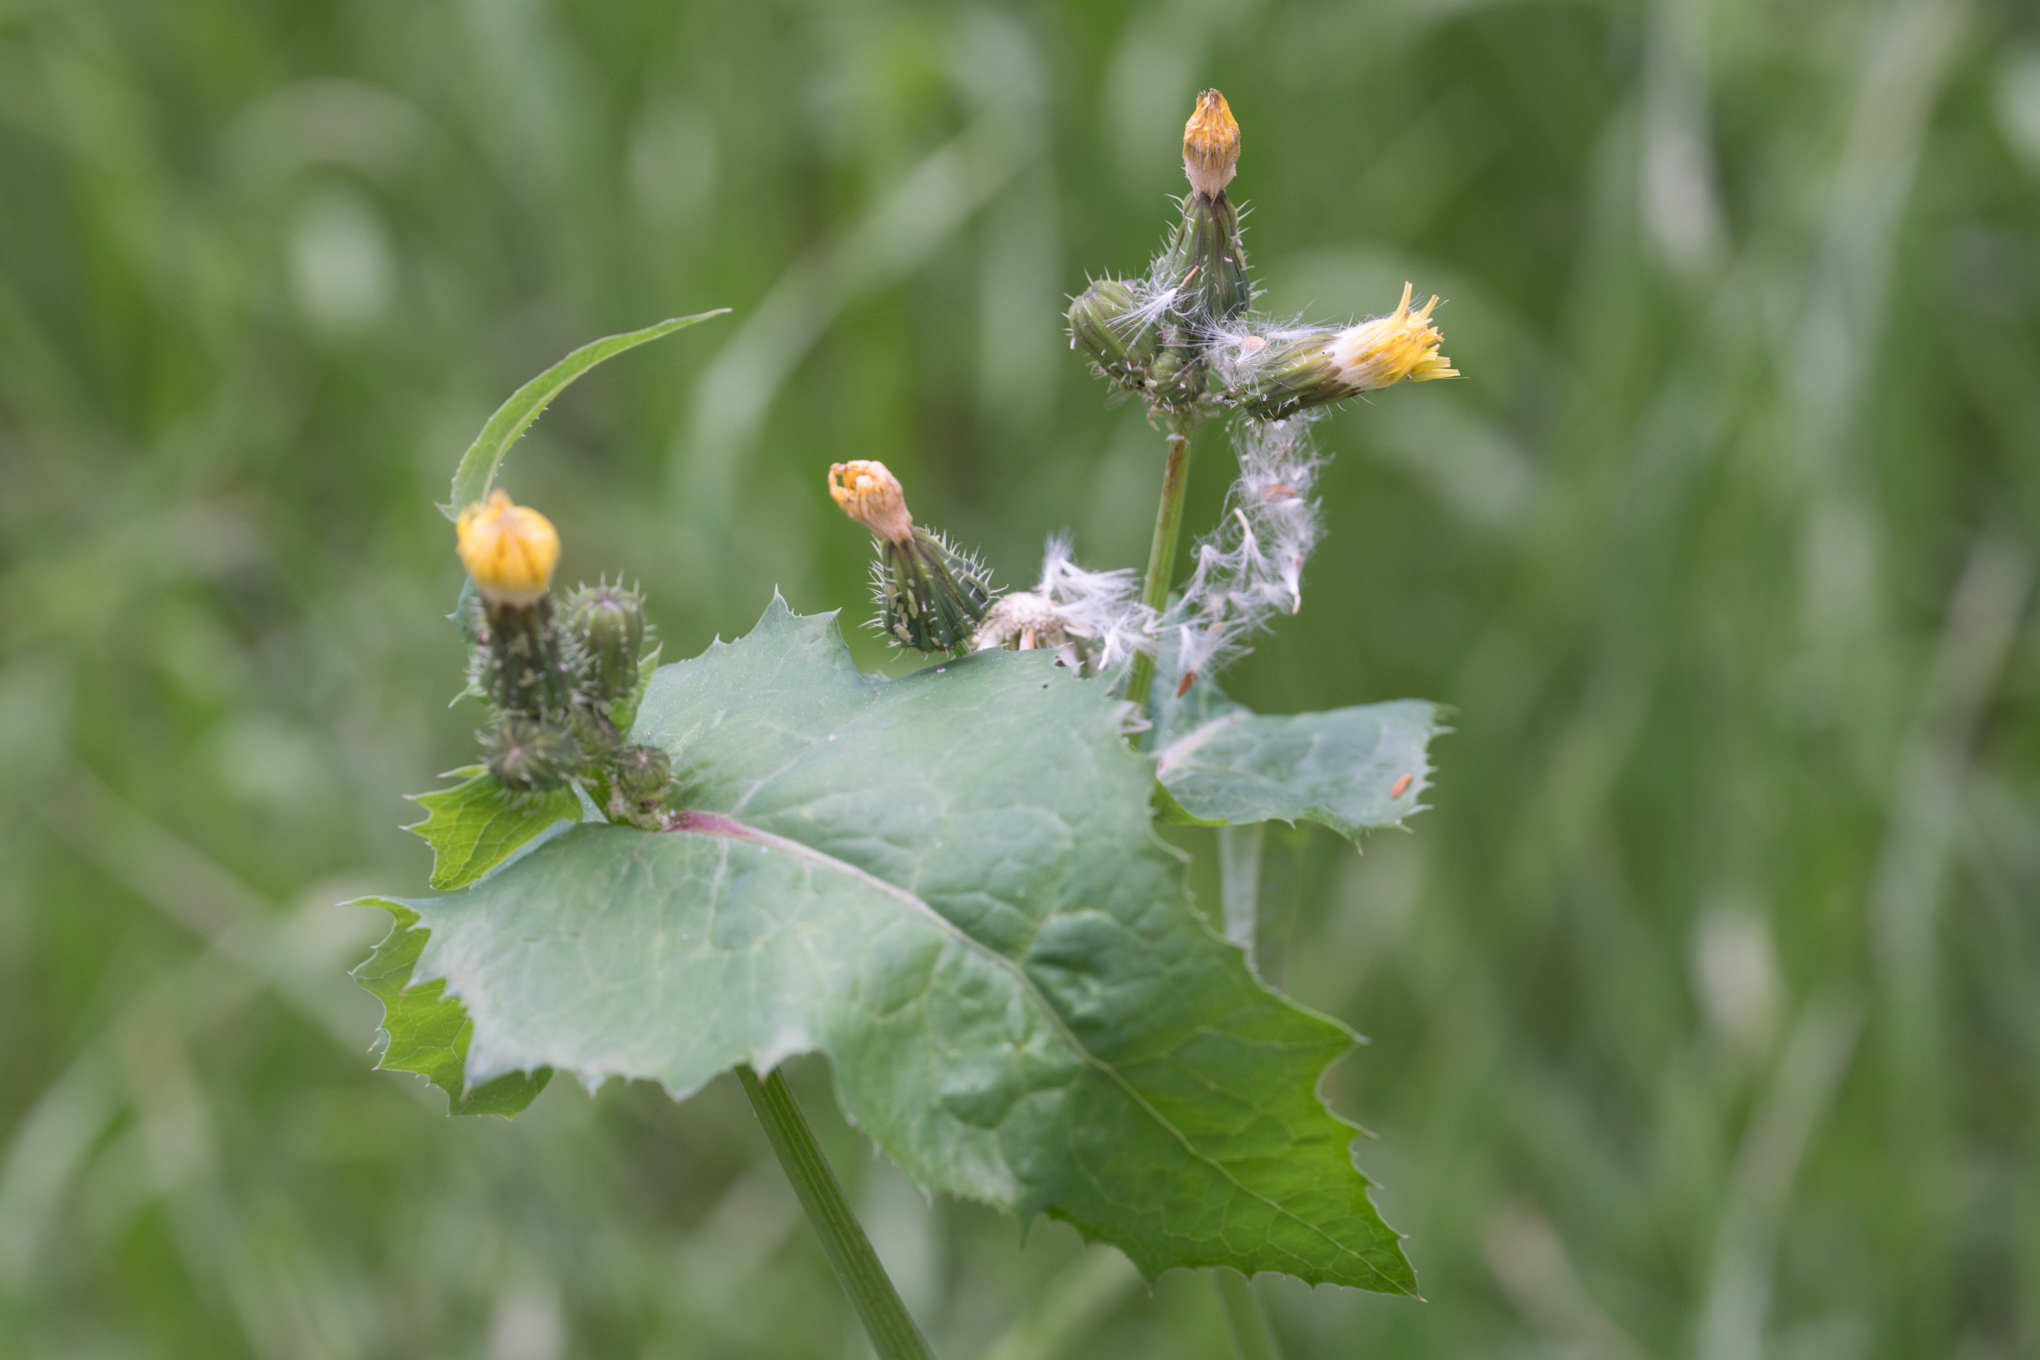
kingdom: Plantae
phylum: Tracheophyta
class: Magnoliopsida
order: Asterales
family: Asteraceae
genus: Sonchus
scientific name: Sonchus oleraceus
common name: Common sowthistle
